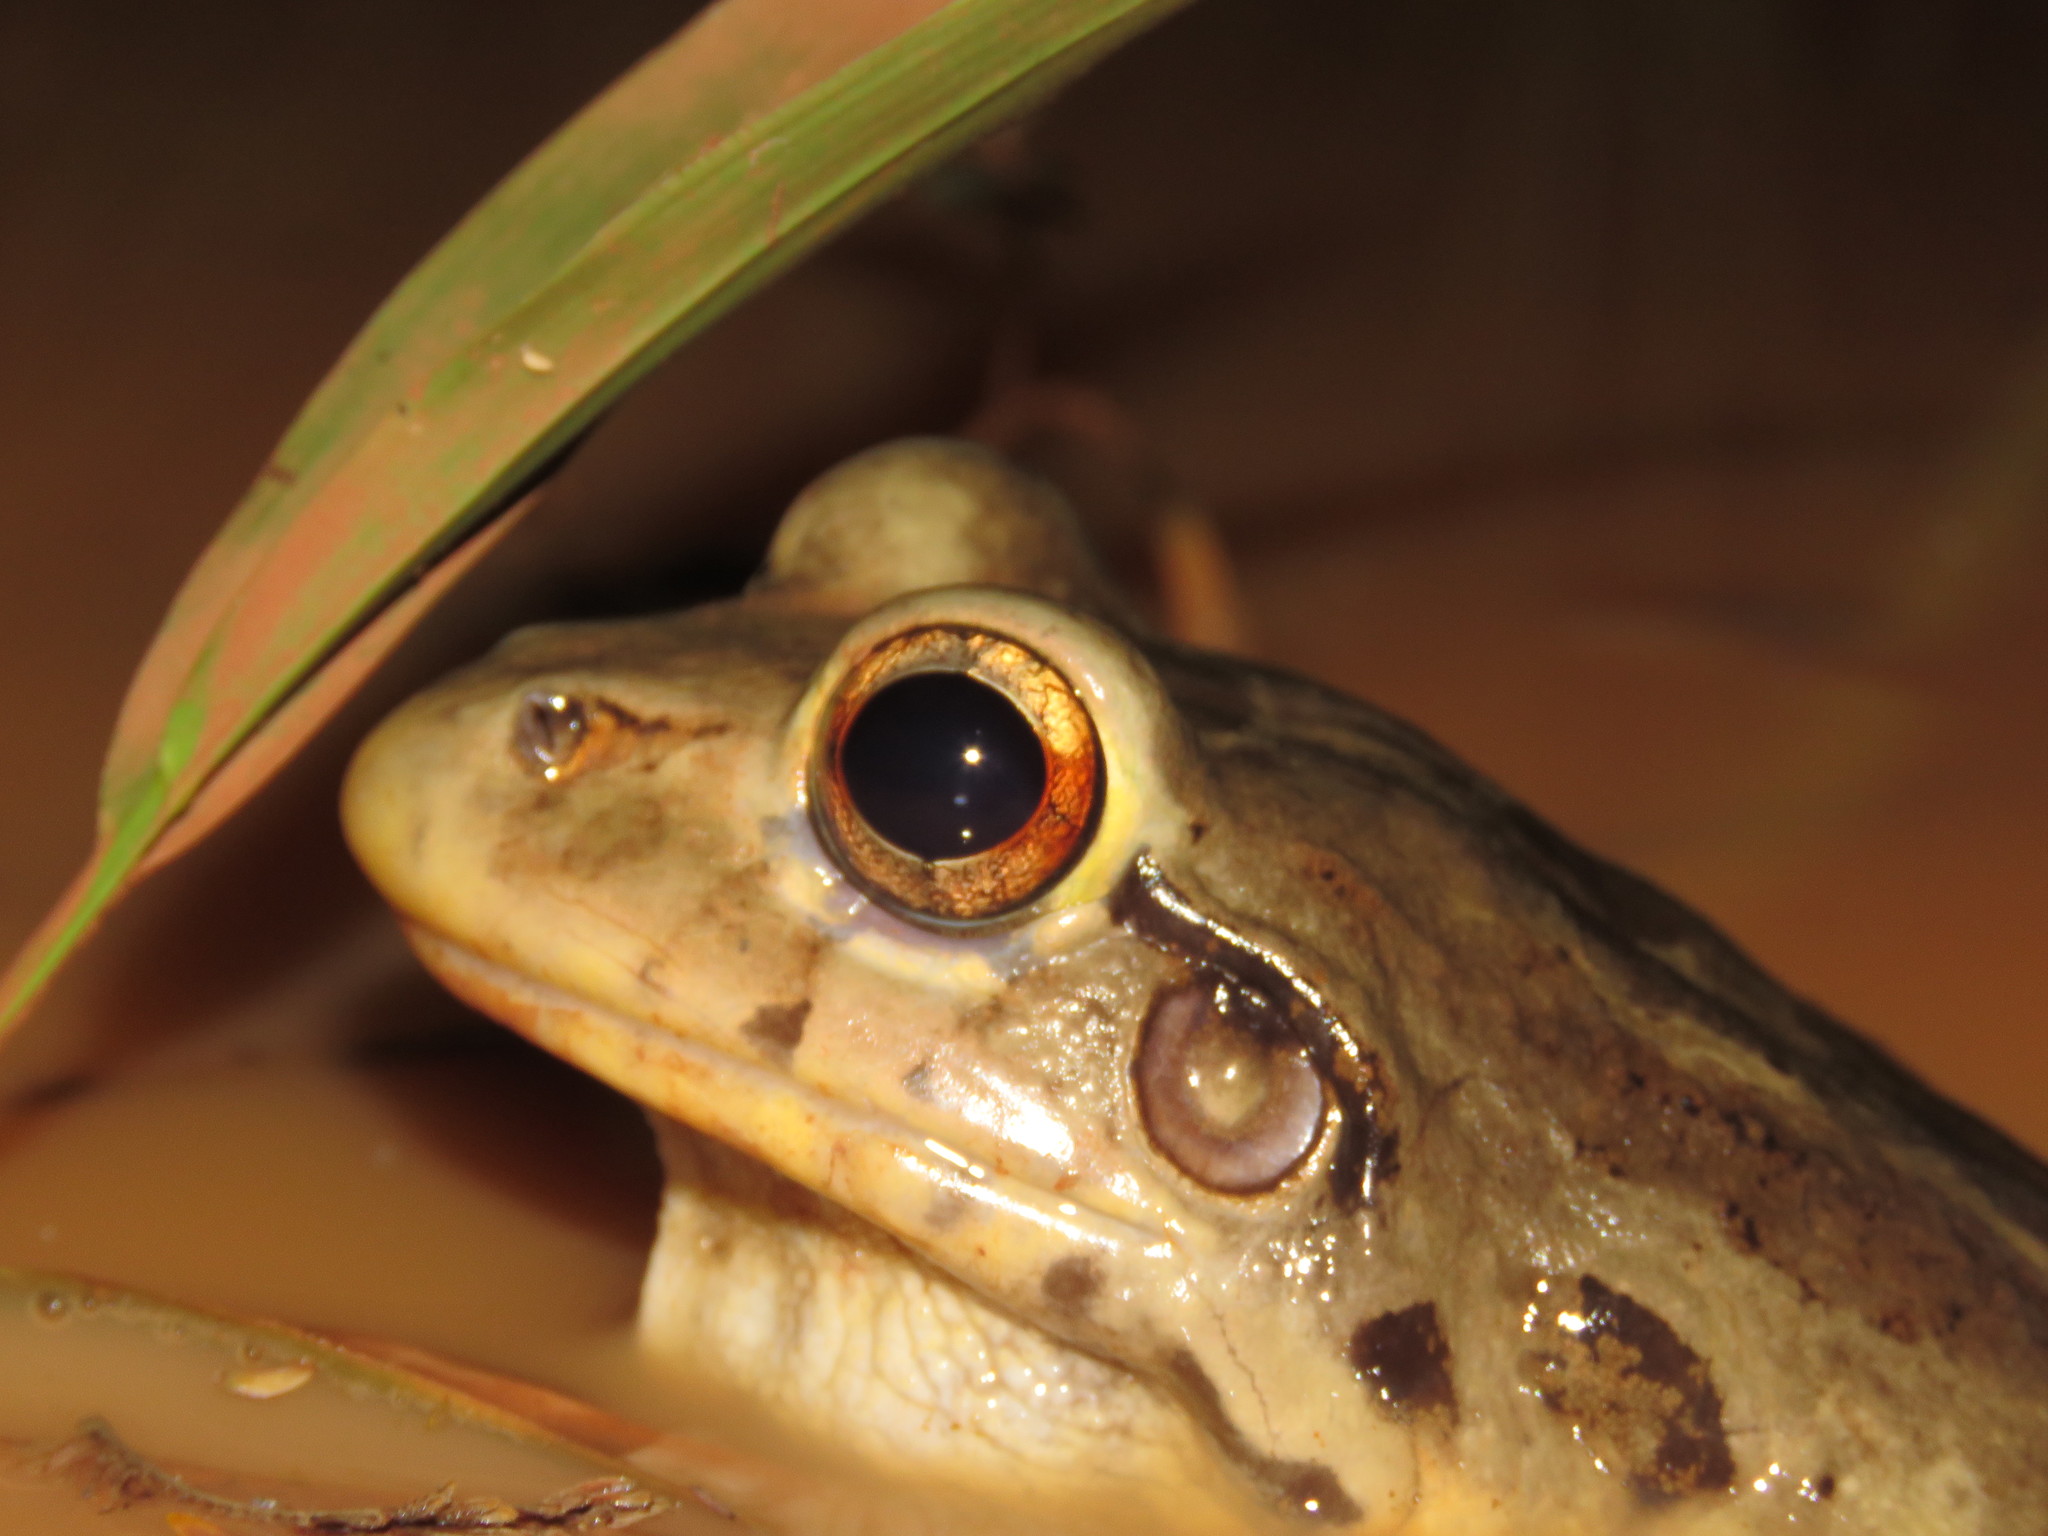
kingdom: Animalia
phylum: Chordata
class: Amphibia
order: Anura
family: Leptodactylidae
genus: Leptodactylus
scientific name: Leptodactylus knudseni
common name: Knudsen's frog
